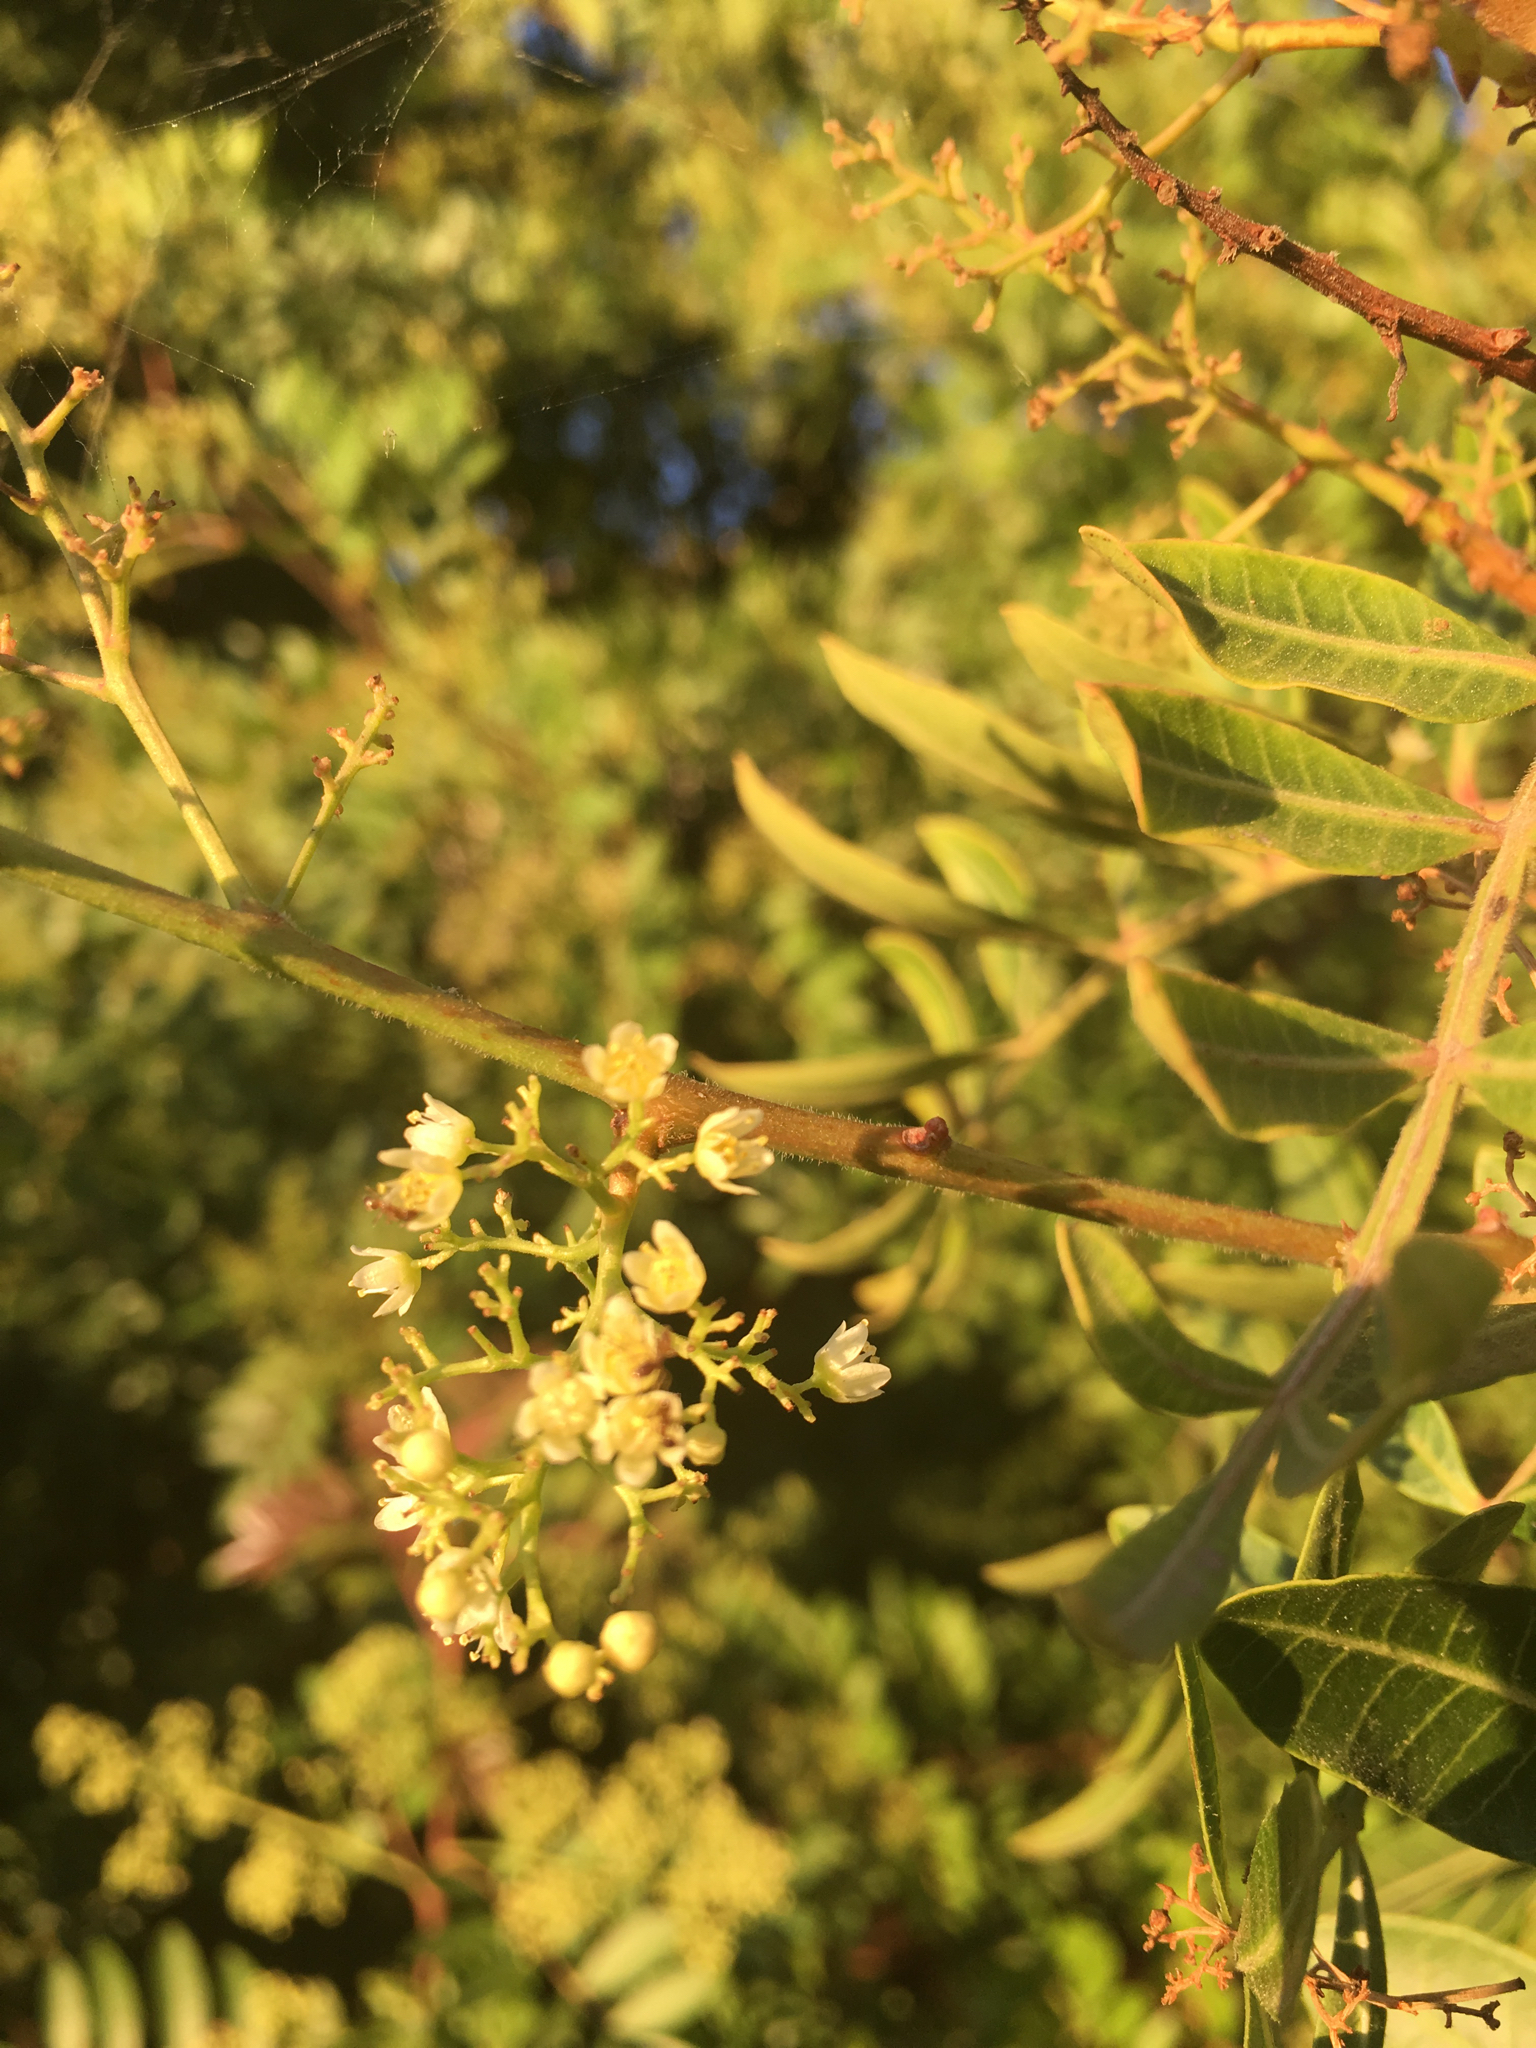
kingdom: Plantae
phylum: Tracheophyta
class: Magnoliopsida
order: Sapindales
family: Anacardiaceae
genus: Schinus
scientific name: Schinus terebinthifolia
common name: Brazilian peppertree
